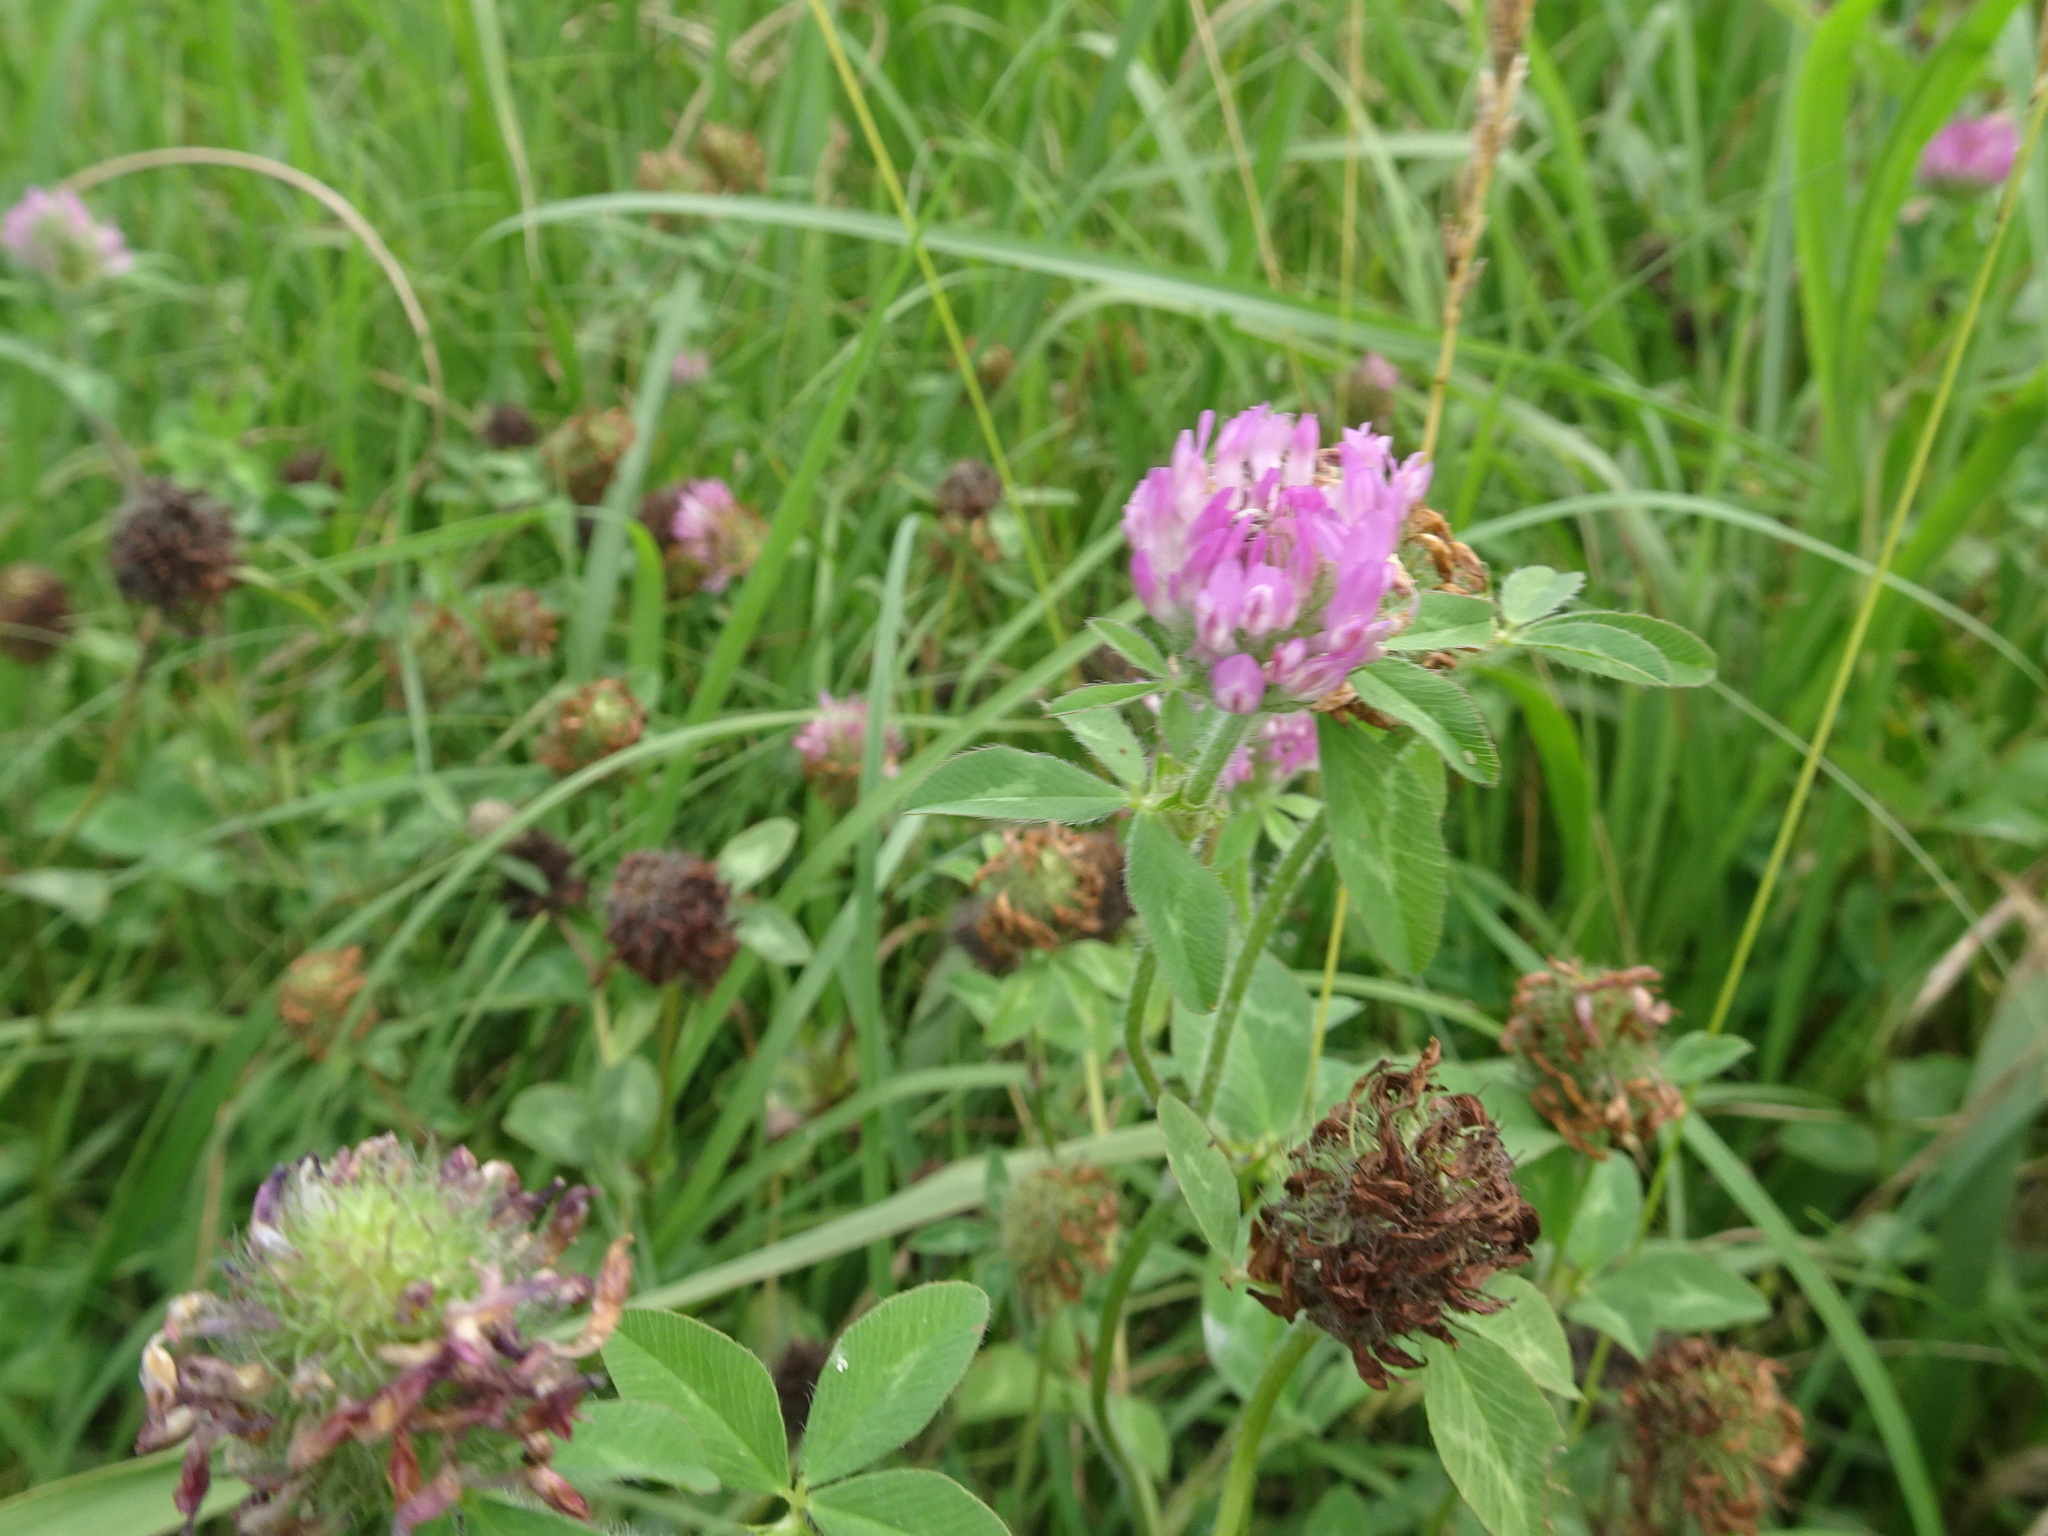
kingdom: Plantae
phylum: Tracheophyta
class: Magnoliopsida
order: Fabales
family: Fabaceae
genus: Trifolium
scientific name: Trifolium pratense
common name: Red clover
